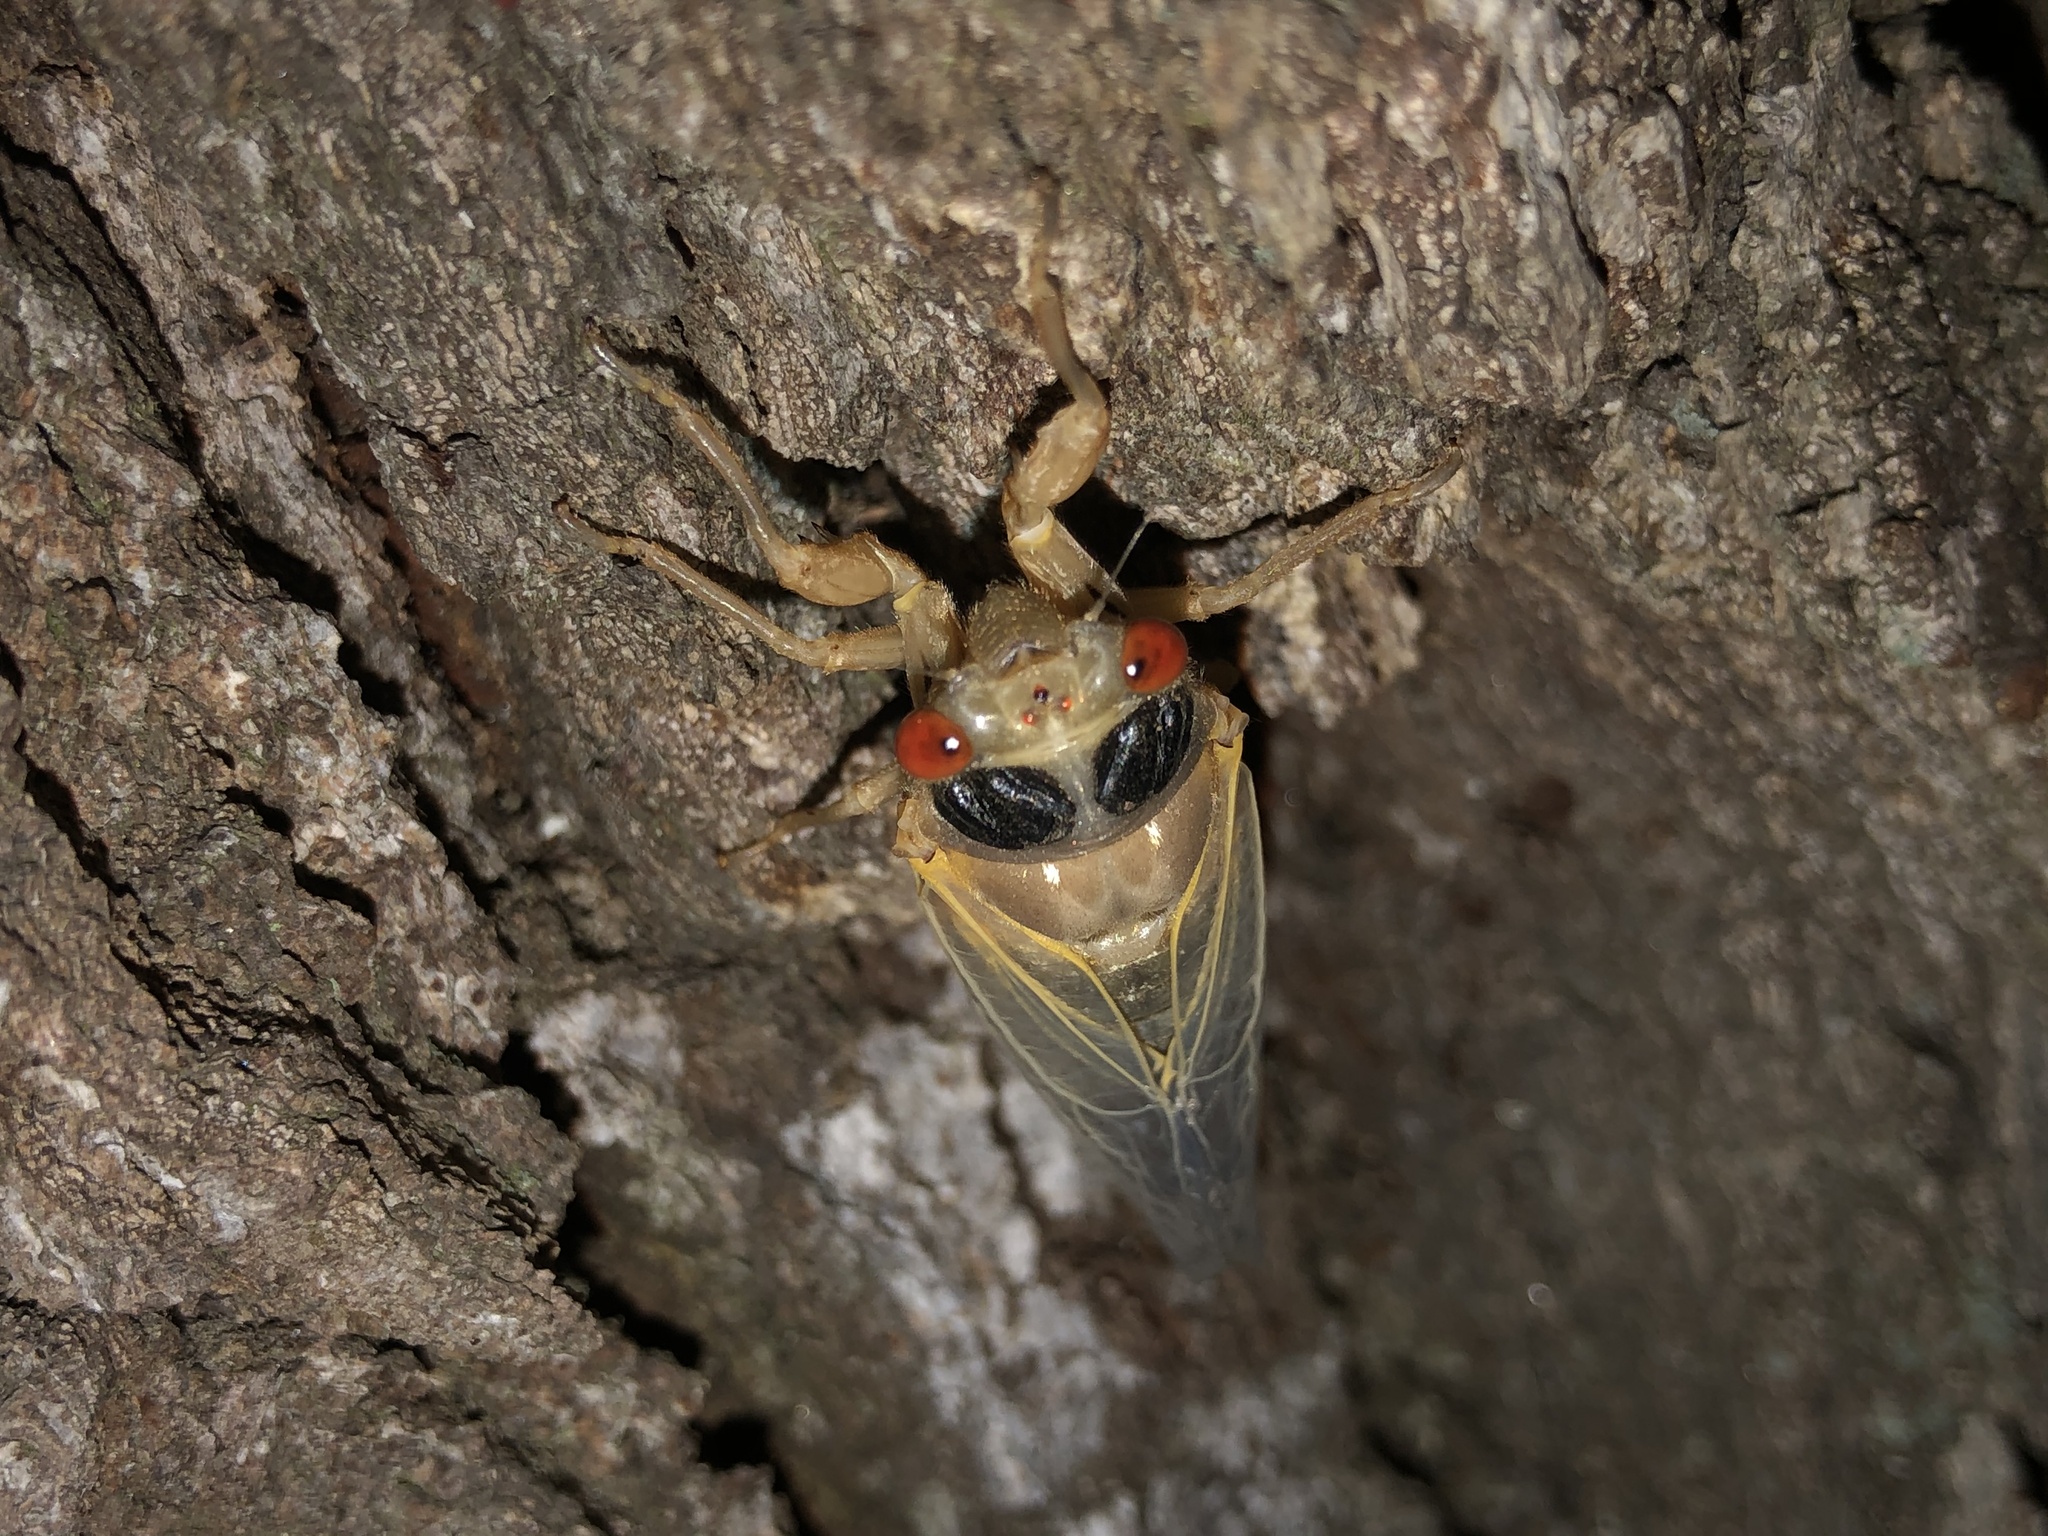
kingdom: Animalia
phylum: Arthropoda
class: Insecta
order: Hemiptera
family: Cicadidae
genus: Magicicada
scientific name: Magicicada
